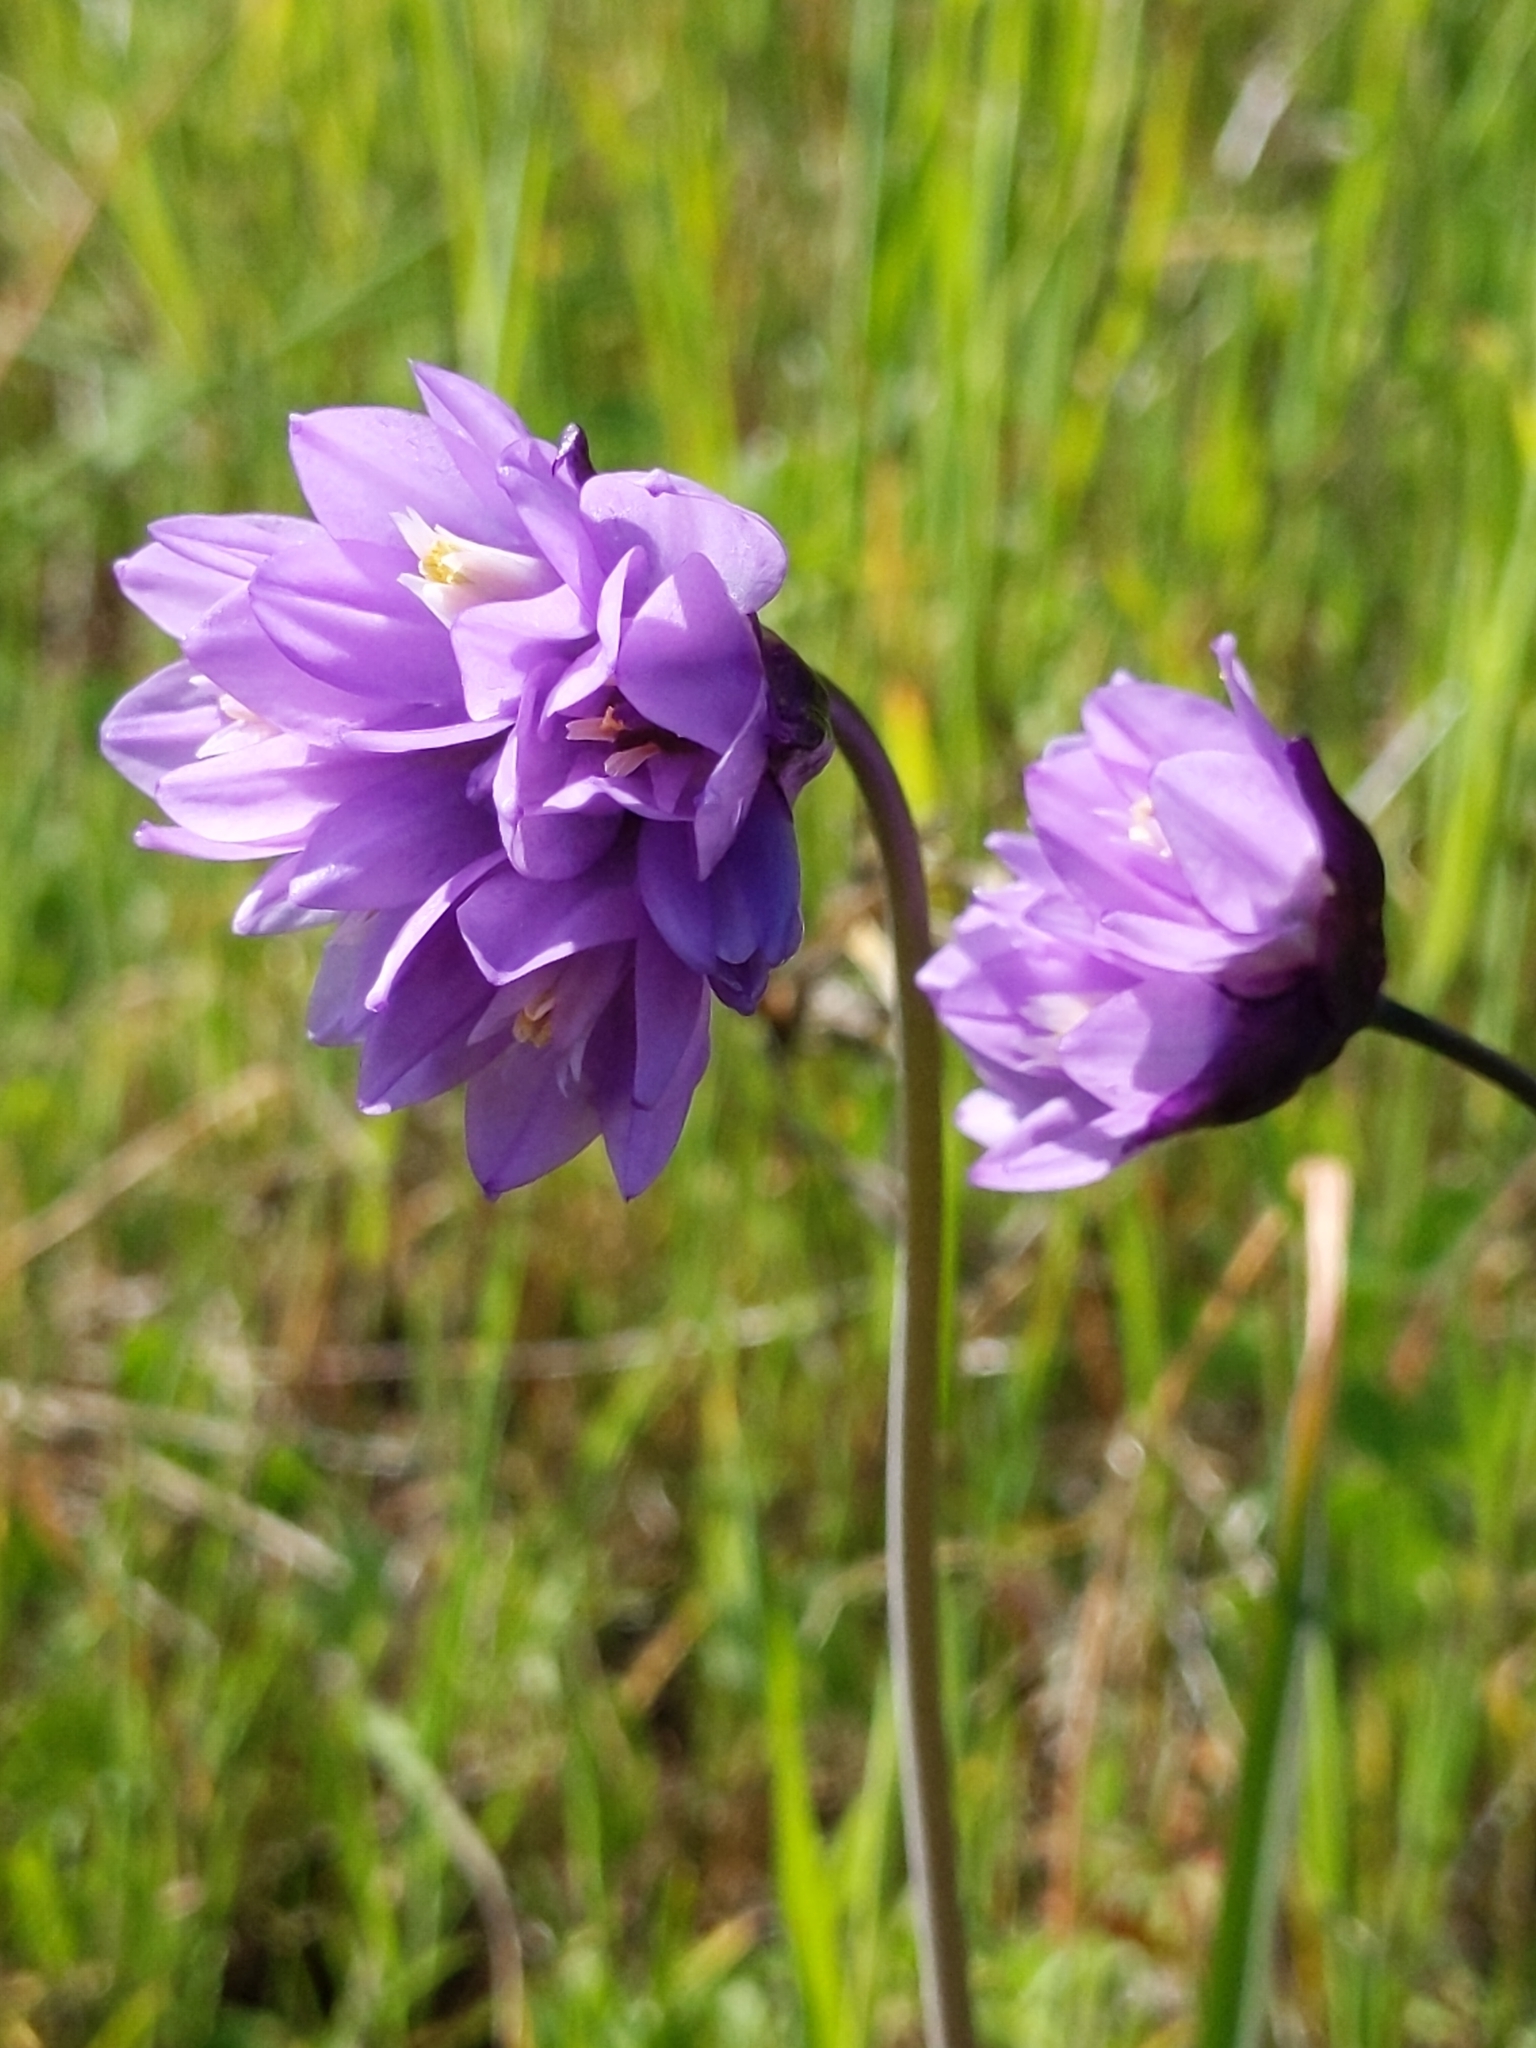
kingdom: Plantae
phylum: Tracheophyta
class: Liliopsida
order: Asparagales
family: Asparagaceae
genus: Dipterostemon
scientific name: Dipterostemon capitatus
